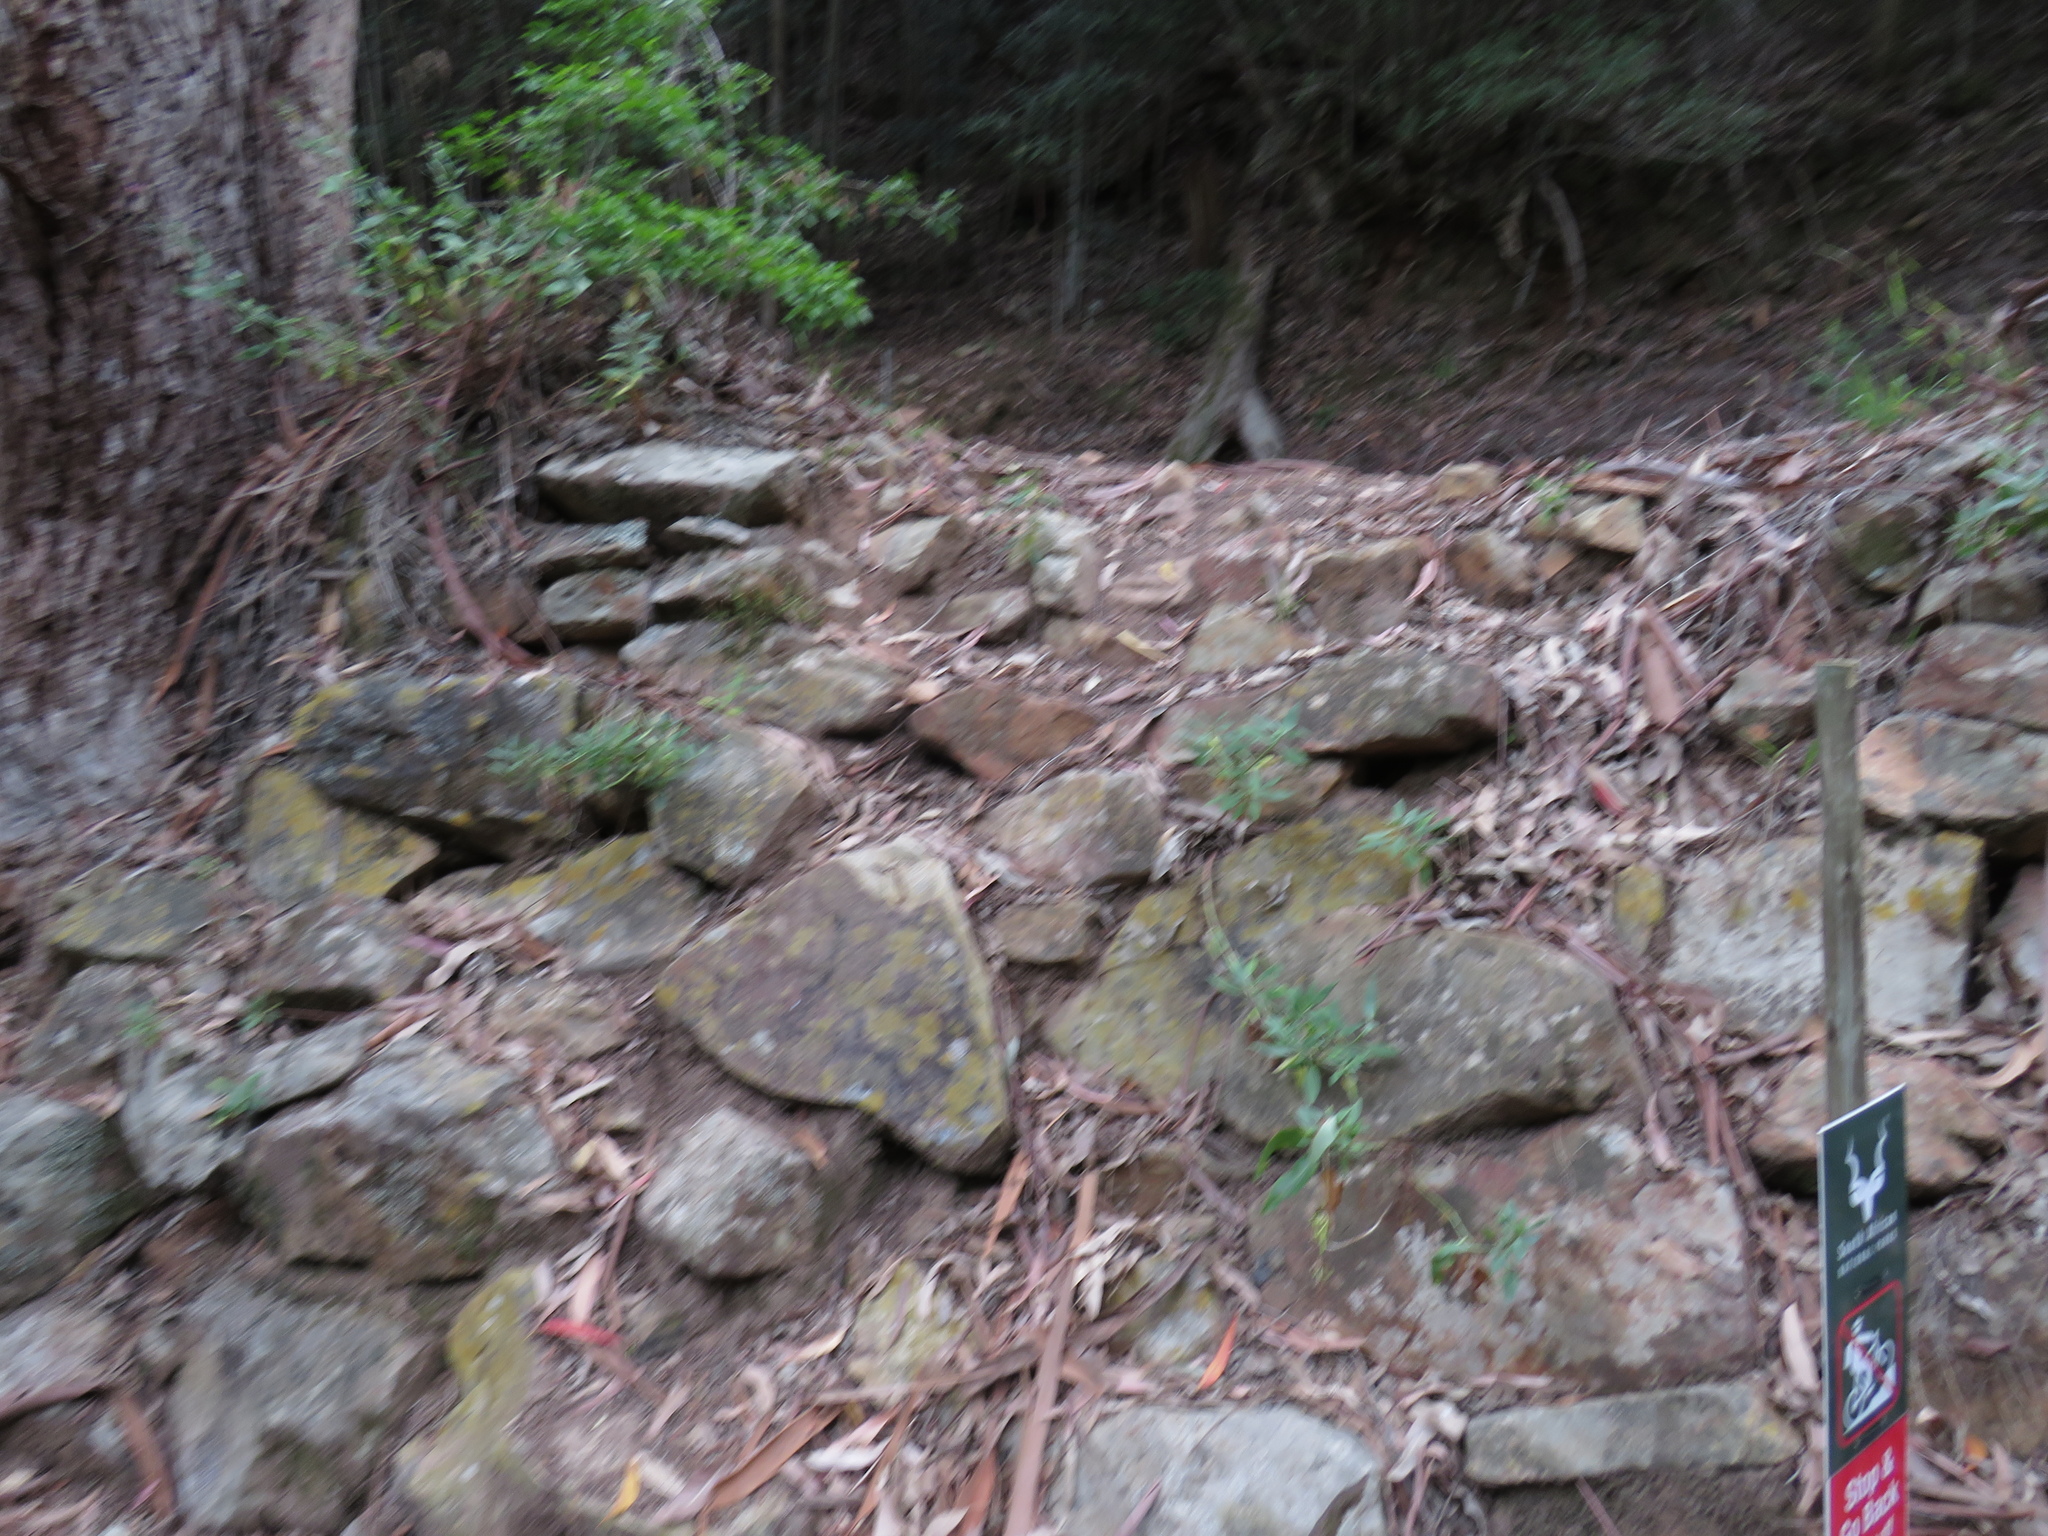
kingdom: Plantae
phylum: Tracheophyta
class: Magnoliopsida
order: Dipsacales
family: Caprifoliaceae
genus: Centranthus
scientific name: Centranthus ruber
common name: Red valerian
